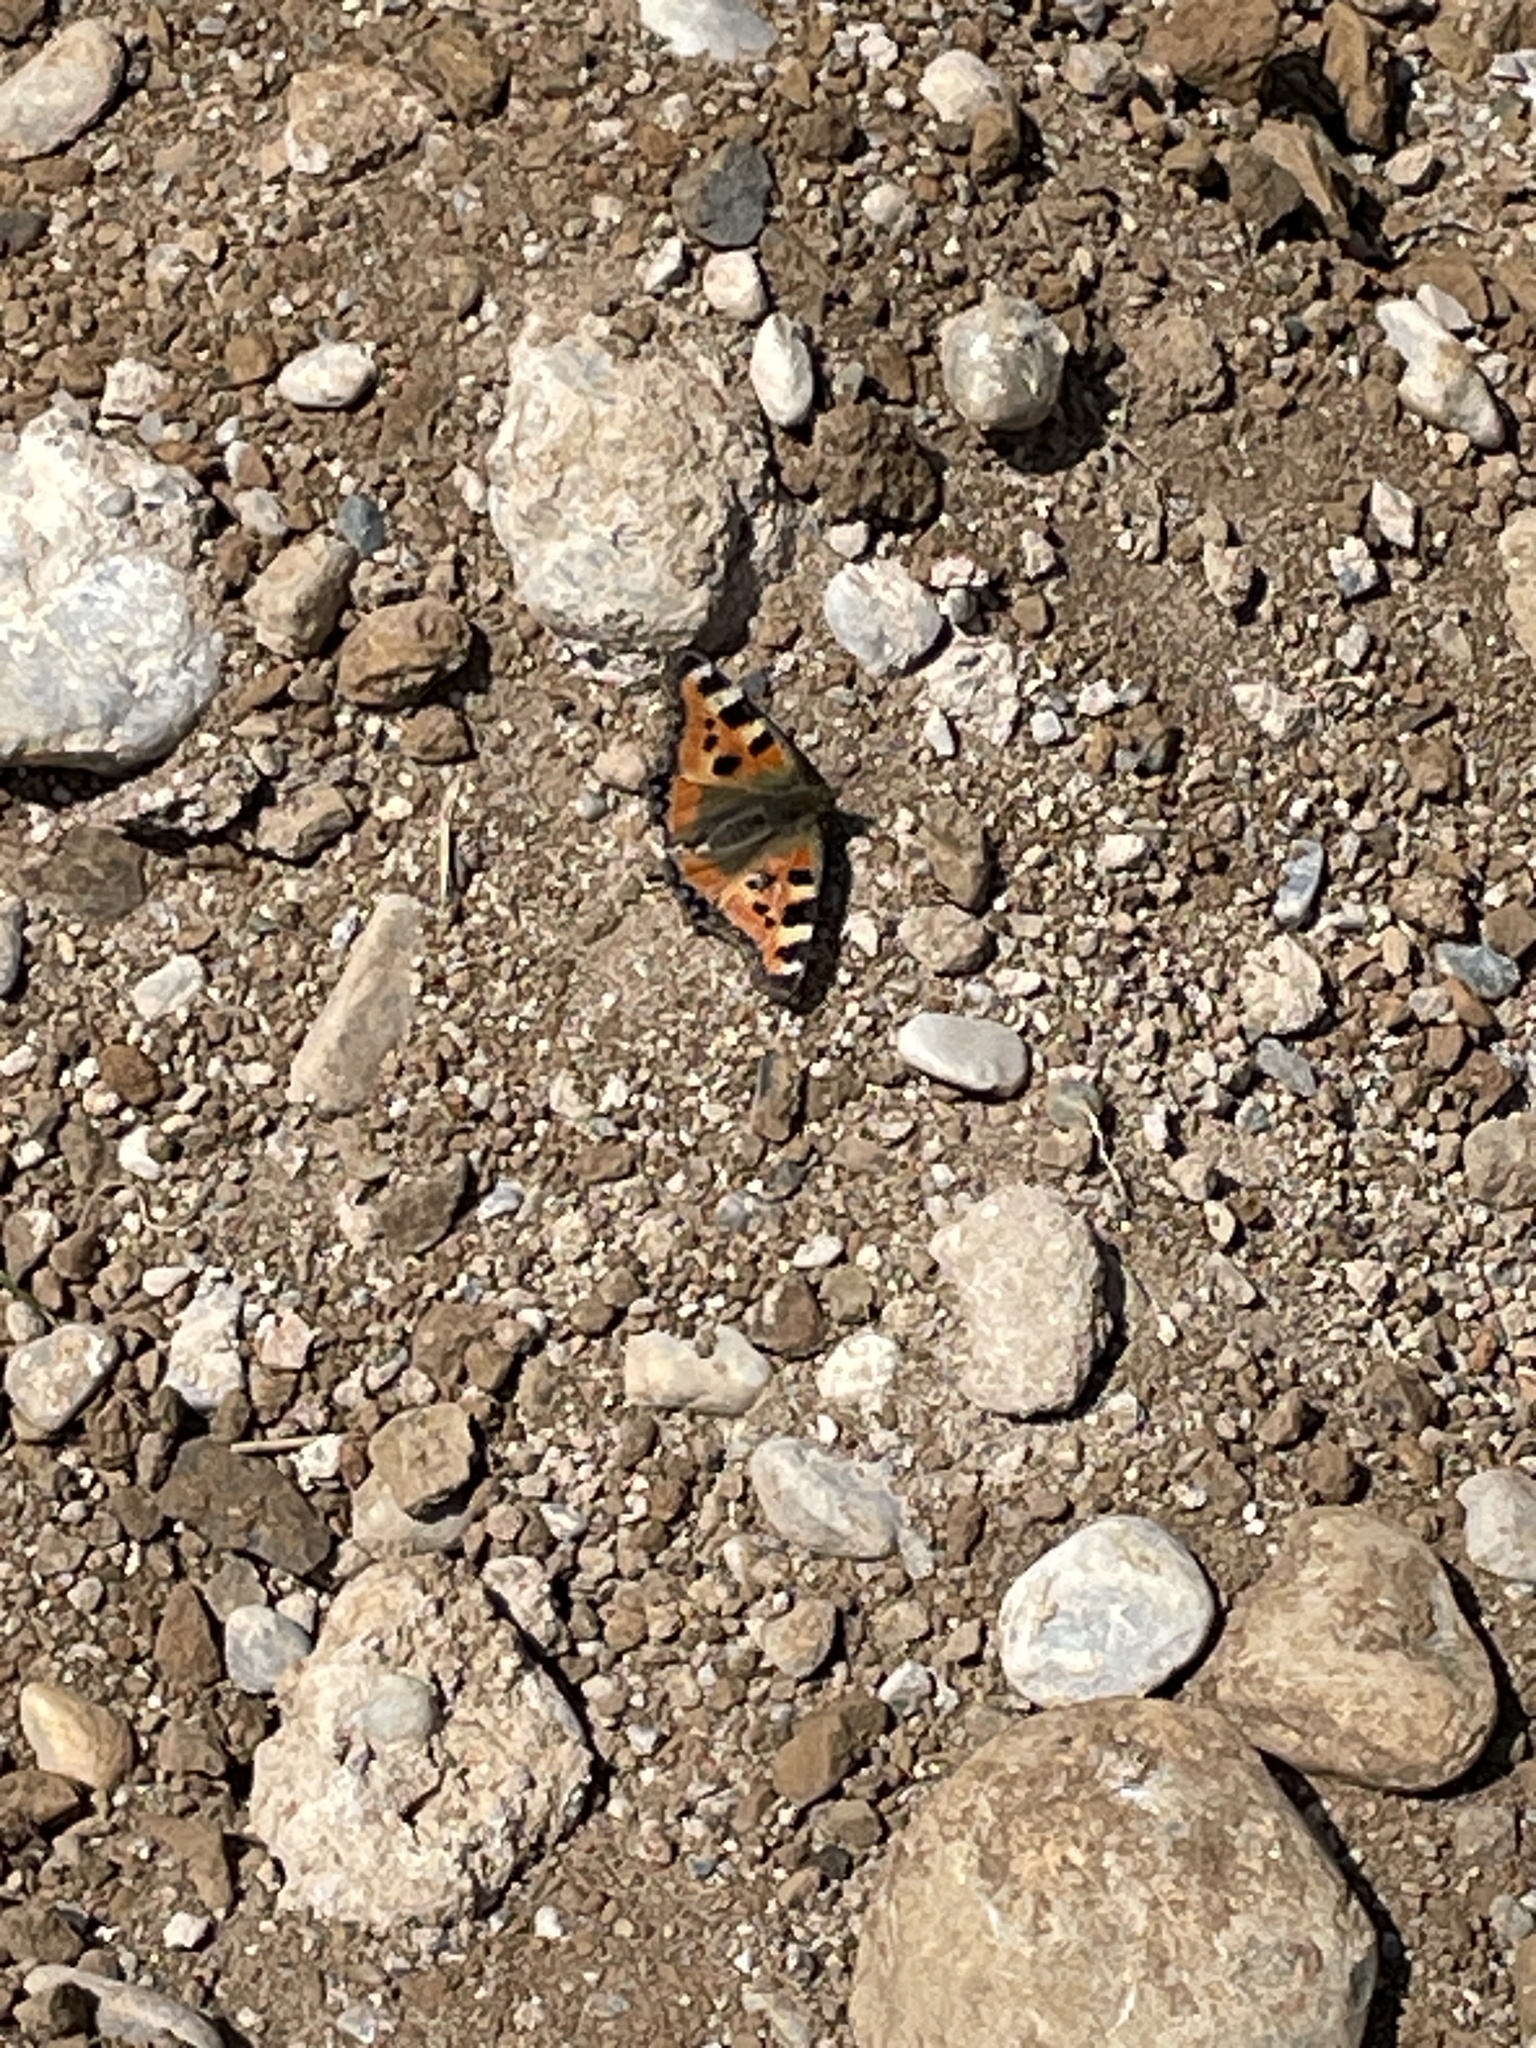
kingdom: Animalia
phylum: Arthropoda
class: Insecta
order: Lepidoptera
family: Nymphalidae
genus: Aglais
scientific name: Aglais urticae
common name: Small tortoiseshell
